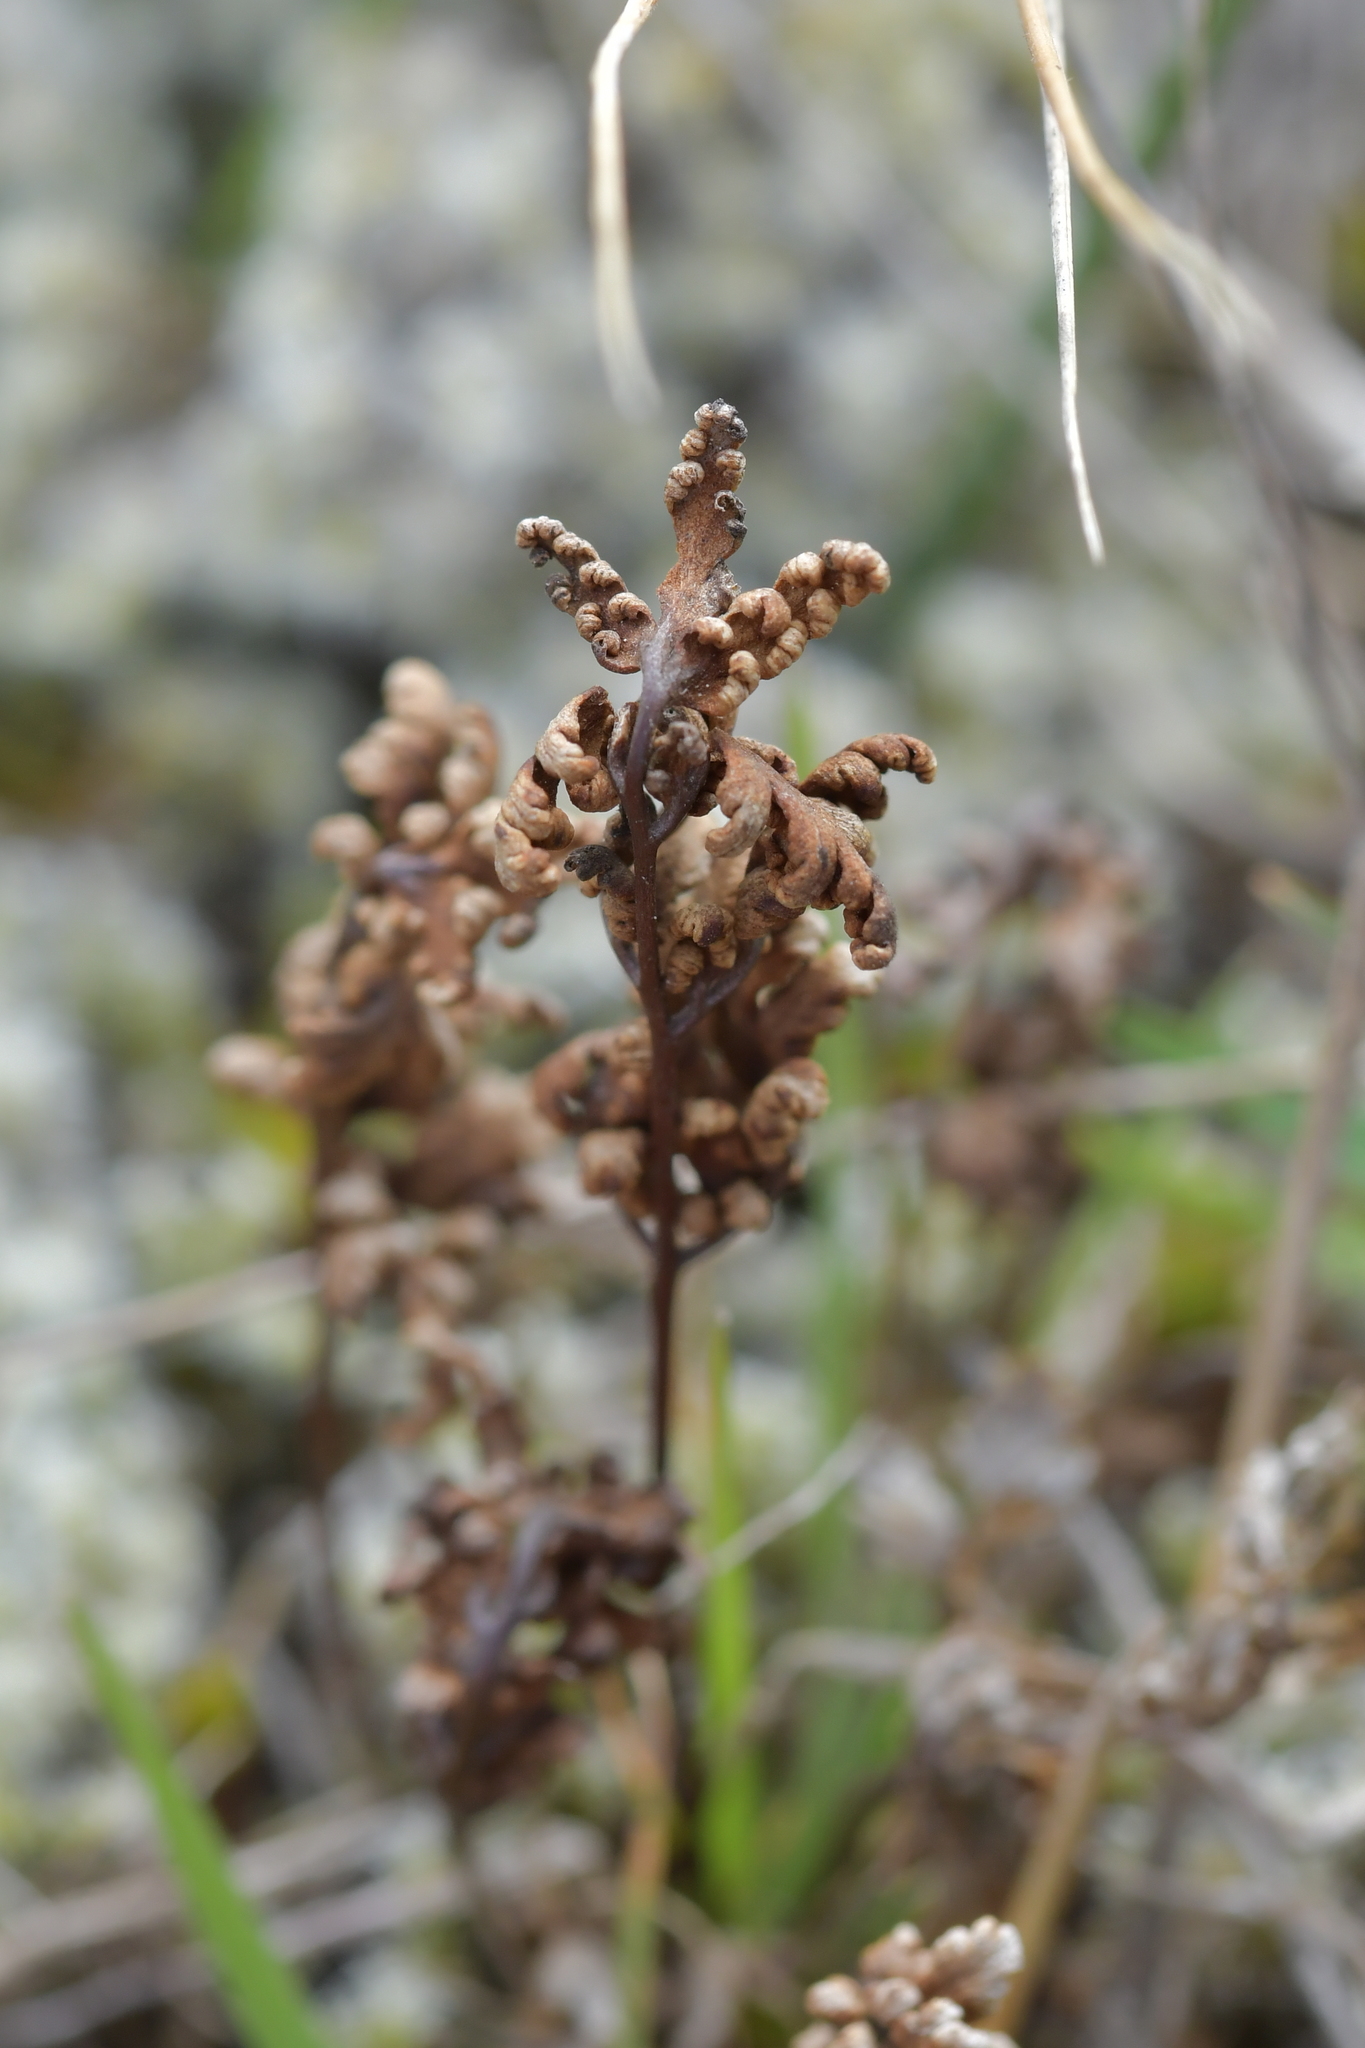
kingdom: Plantae
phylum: Tracheophyta
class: Polypodiopsida
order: Polypodiales
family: Pteridaceae
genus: Cheilanthes
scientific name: Cheilanthes sieberi
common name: Mulga fern
